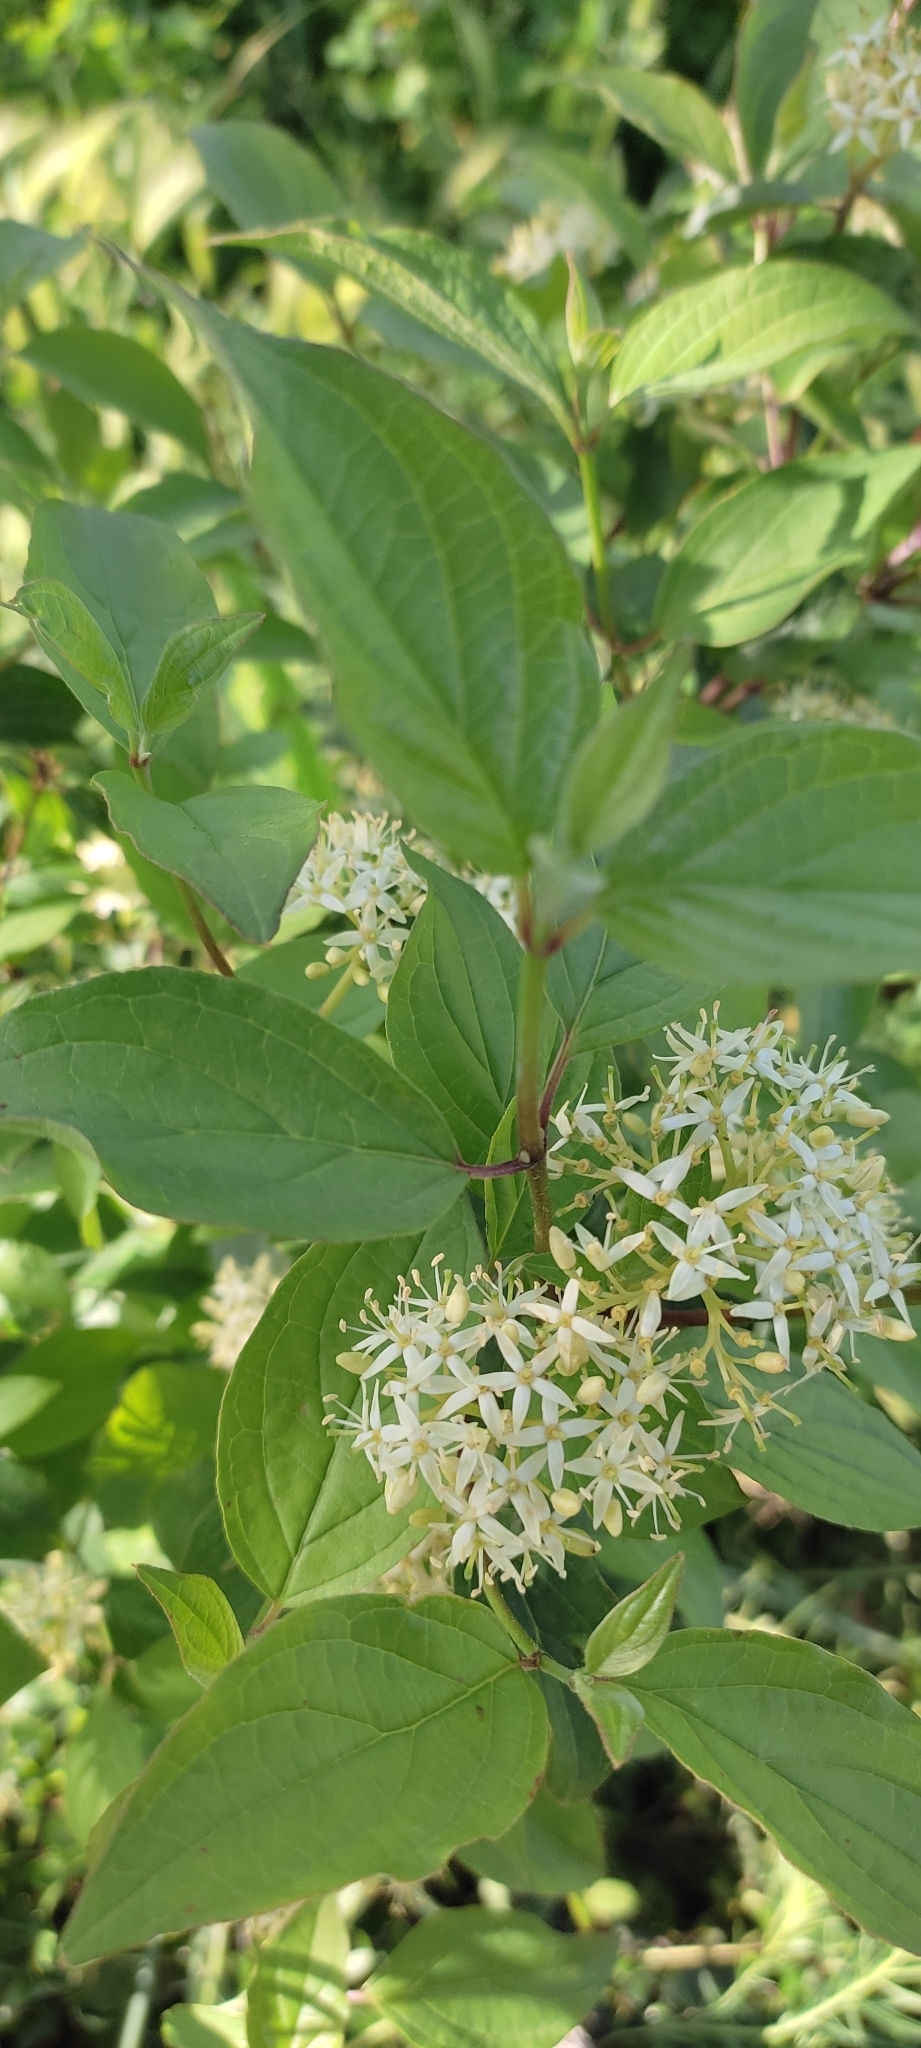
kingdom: Plantae
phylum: Tracheophyta
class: Magnoliopsida
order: Cornales
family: Cornaceae
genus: Cornus
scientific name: Cornus sanguinea
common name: Dogwood
